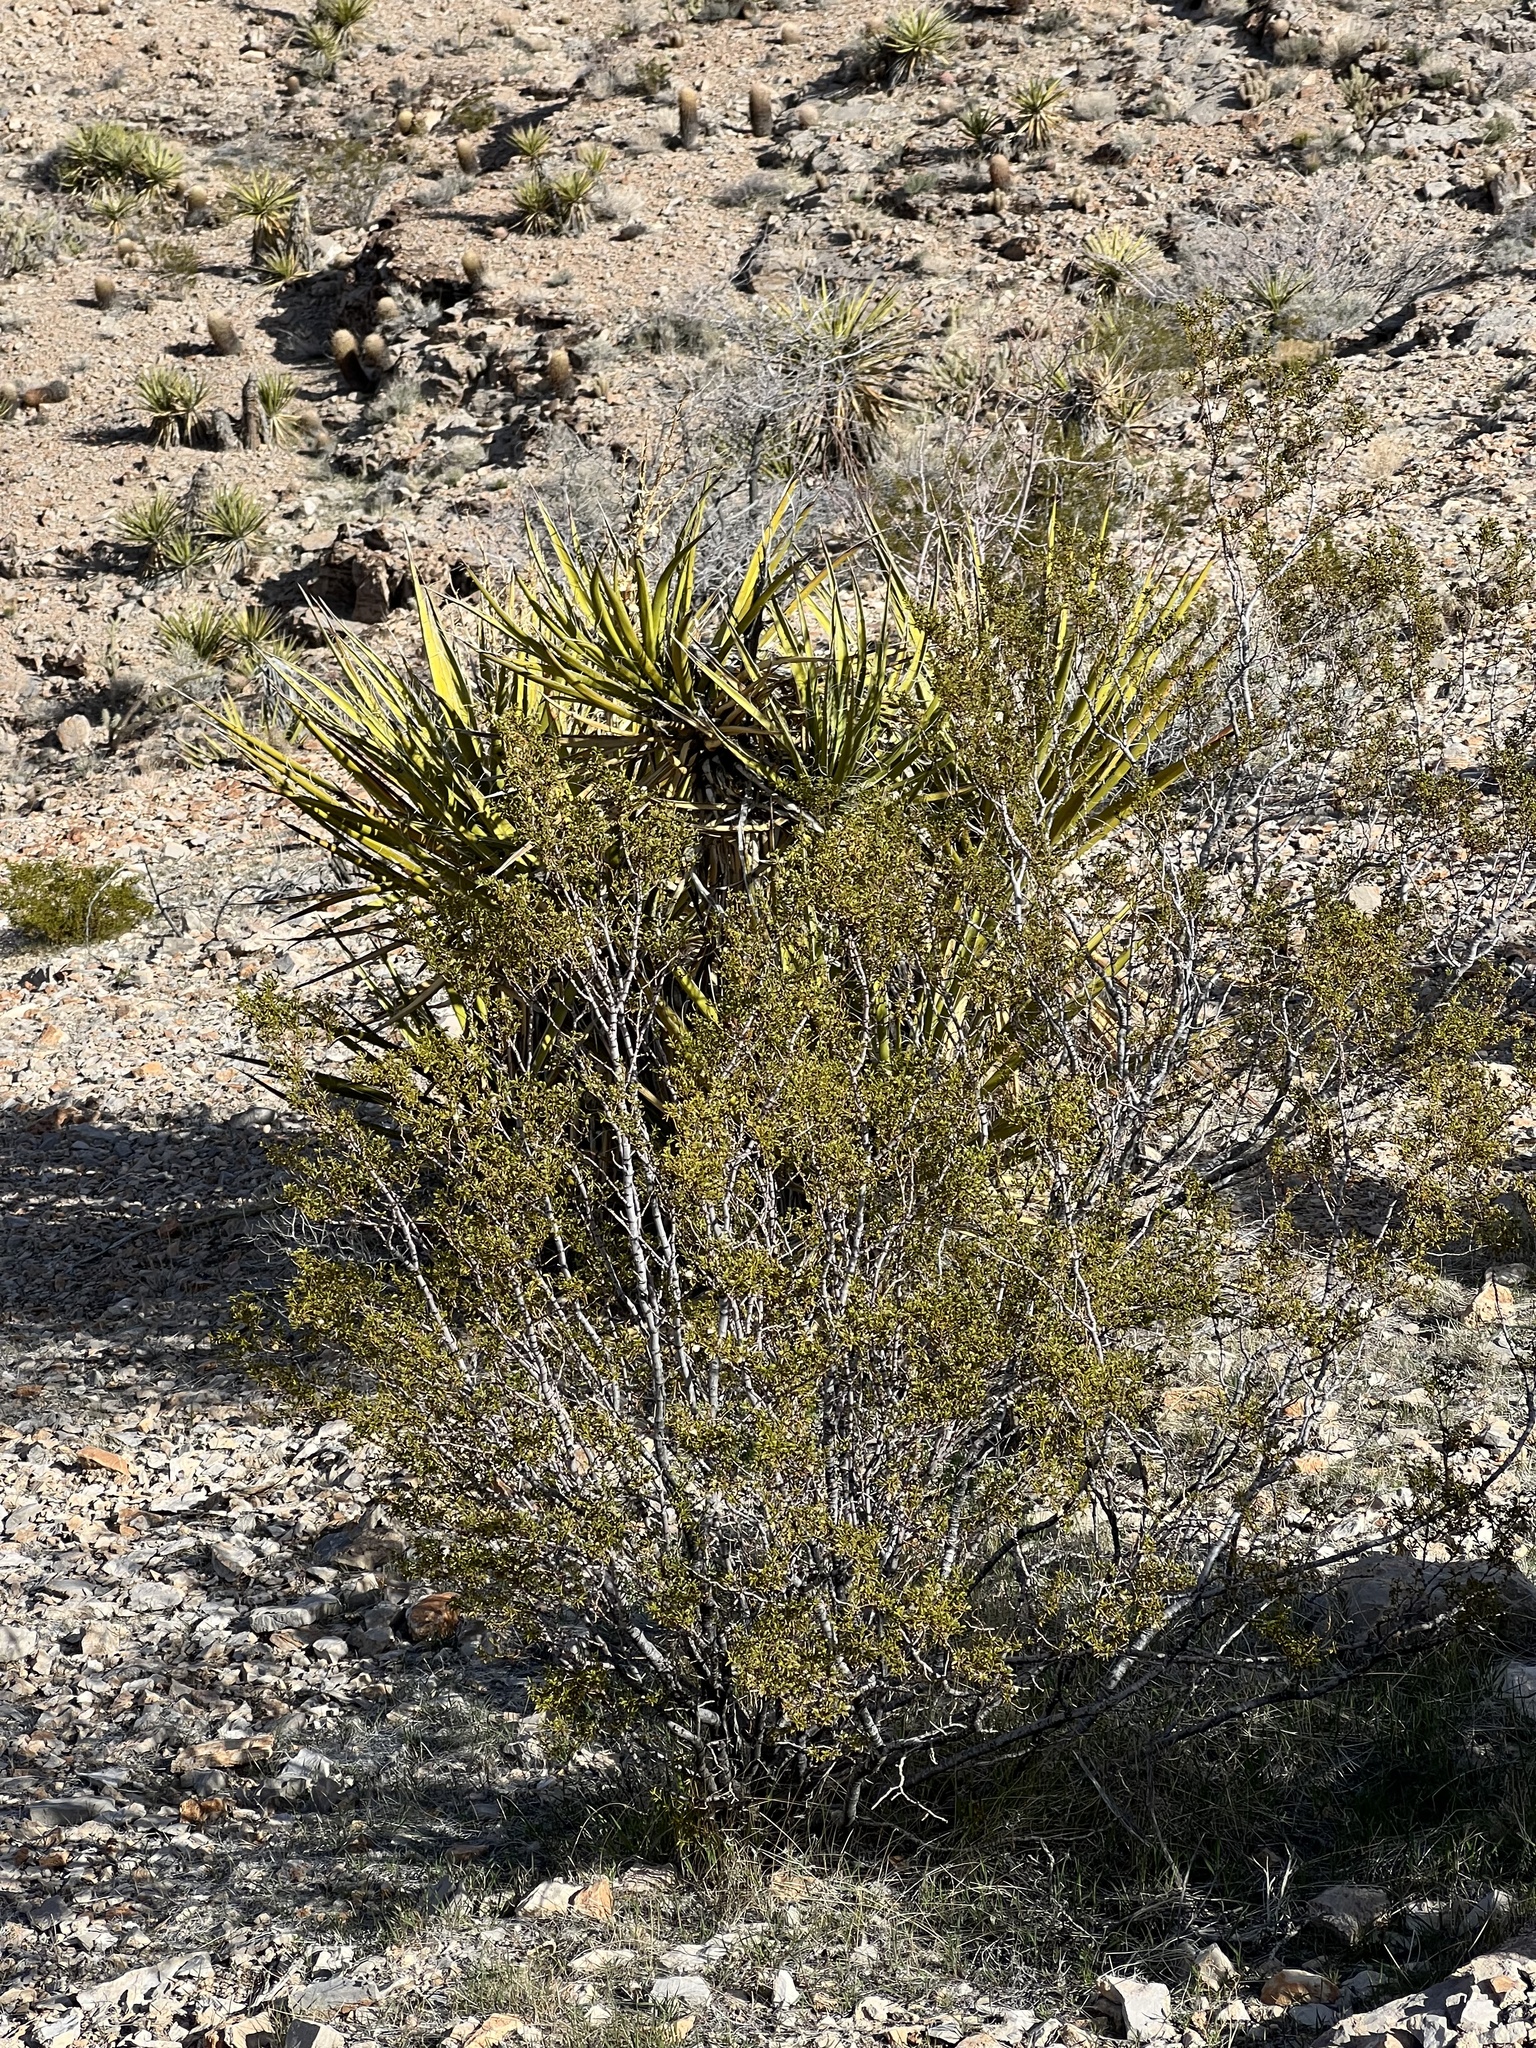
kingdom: Plantae
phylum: Tracheophyta
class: Magnoliopsida
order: Zygophyllales
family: Zygophyllaceae
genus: Larrea
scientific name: Larrea tridentata
